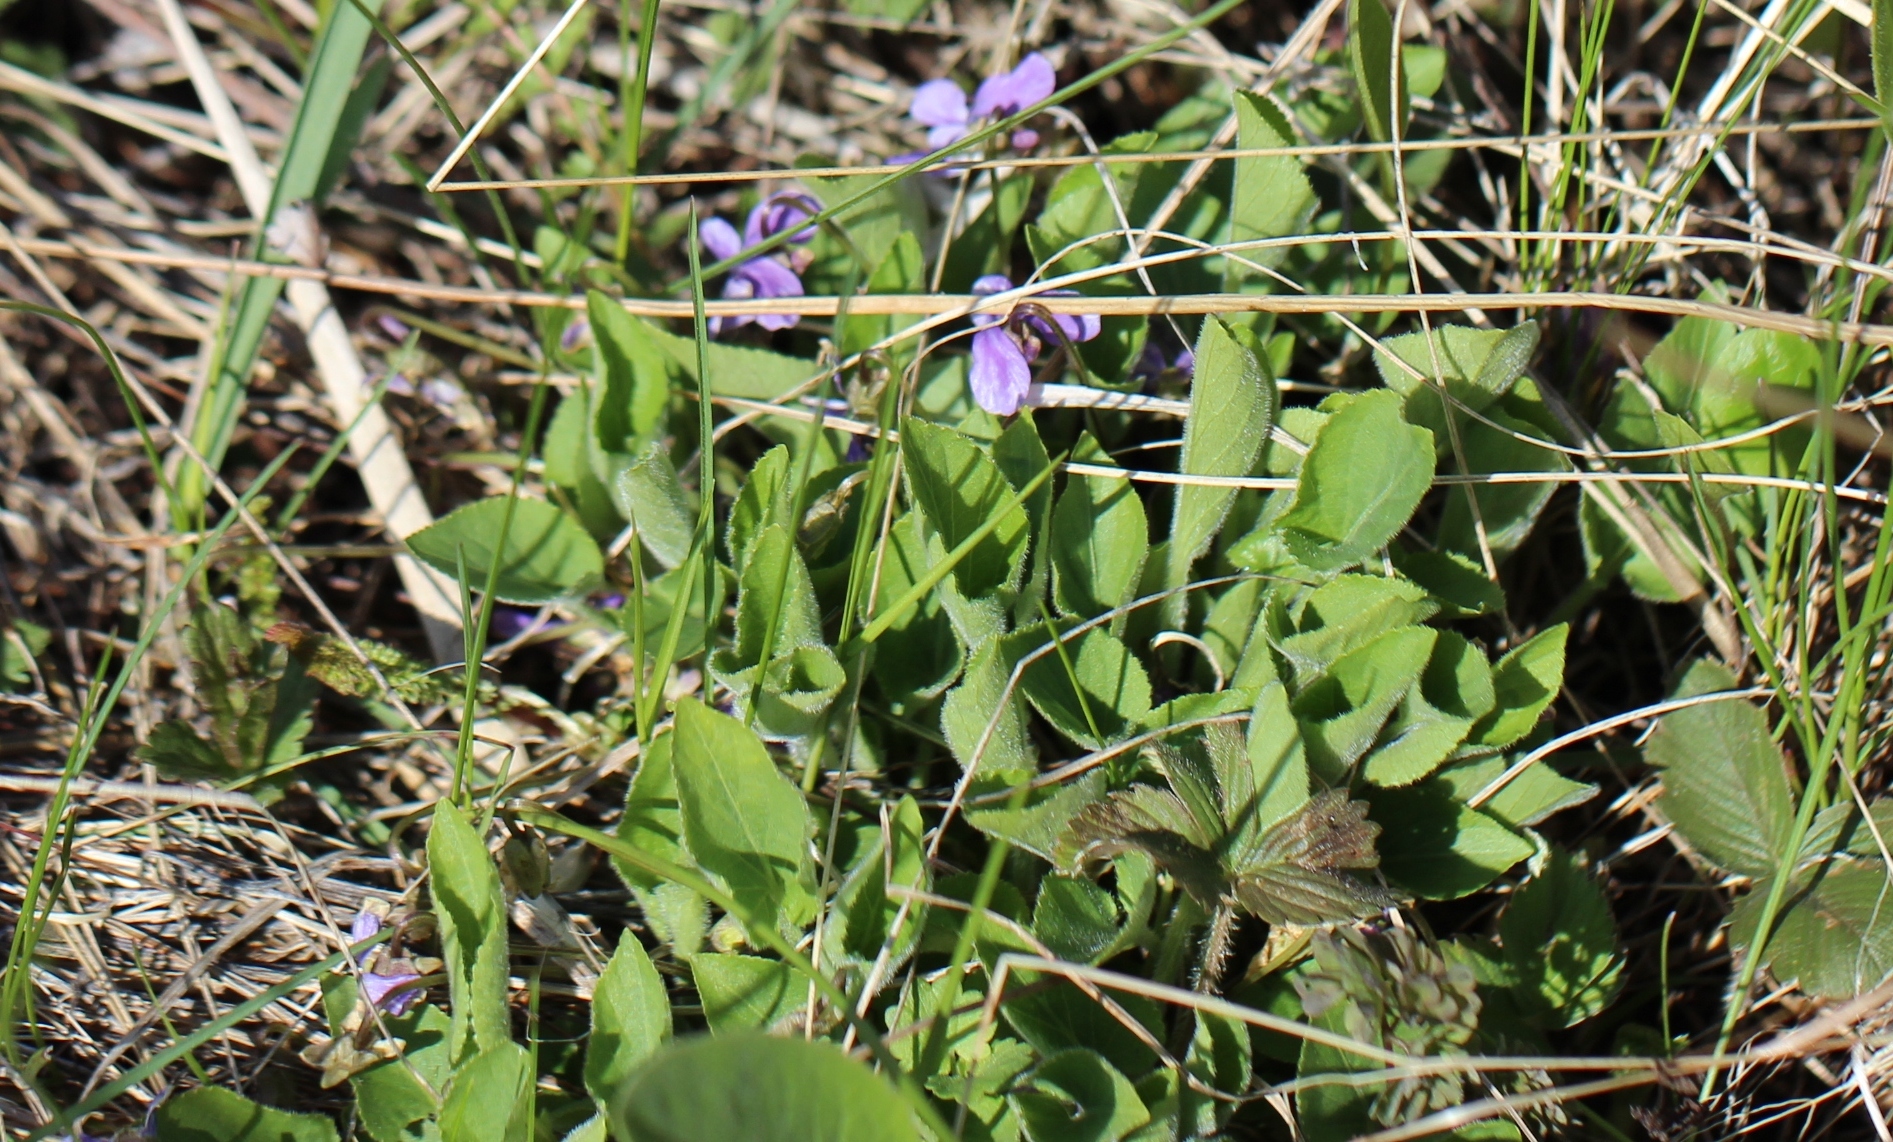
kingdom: Plantae
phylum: Tracheophyta
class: Magnoliopsida
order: Malpighiales
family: Violaceae
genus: Viola
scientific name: Viola hirta
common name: Hairy violet
